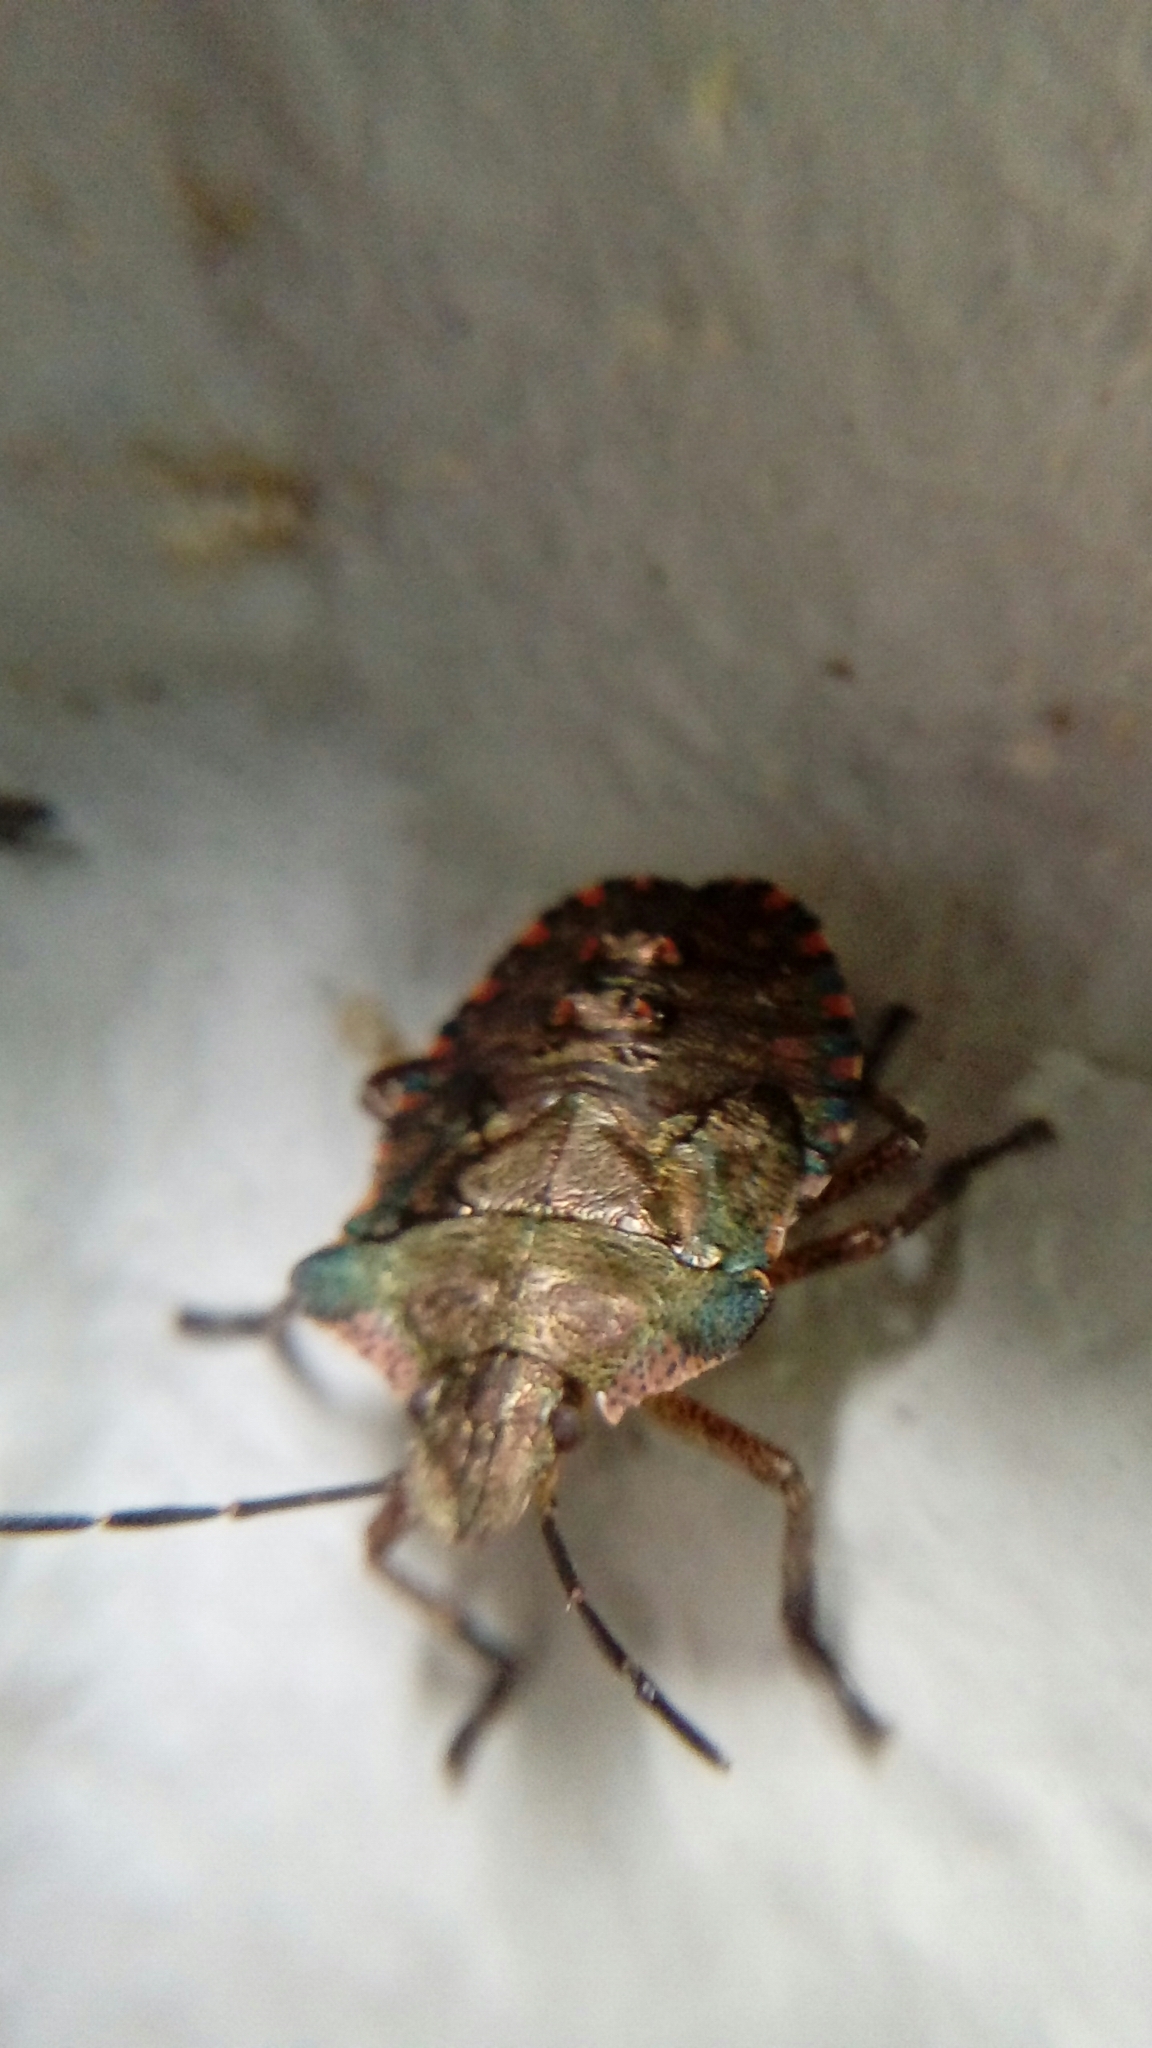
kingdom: Animalia
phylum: Arthropoda
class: Insecta
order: Hemiptera
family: Pentatomidae
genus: Pentatoma
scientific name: Pentatoma rufipes
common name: Forest bug
